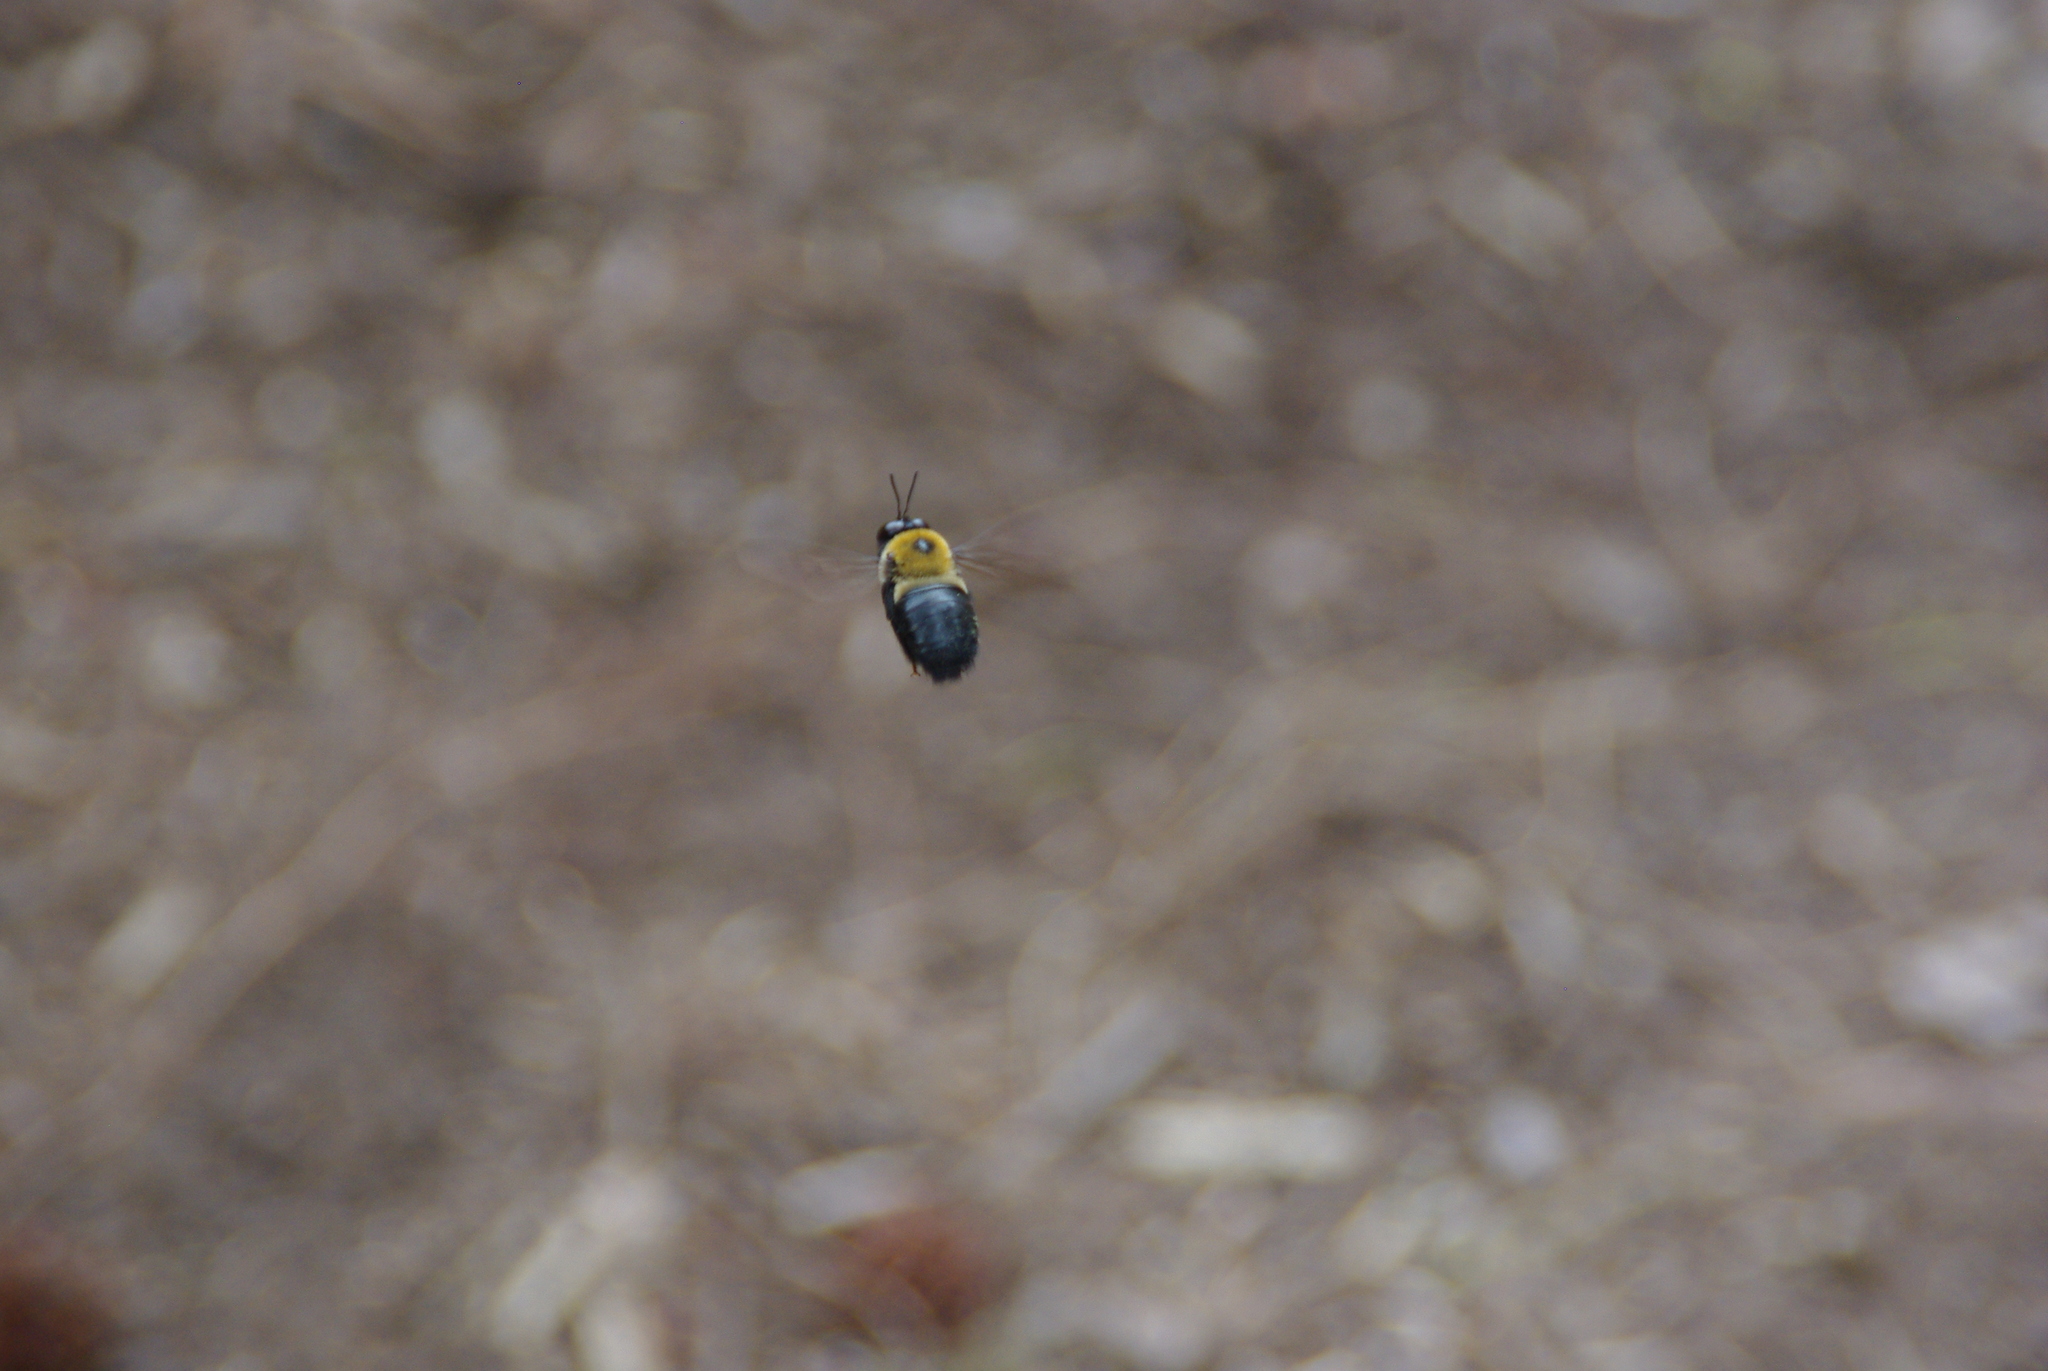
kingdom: Animalia
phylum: Arthropoda
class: Insecta
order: Hymenoptera
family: Apidae
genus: Xylocopa
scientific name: Xylocopa virginica
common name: Carpenter bee
